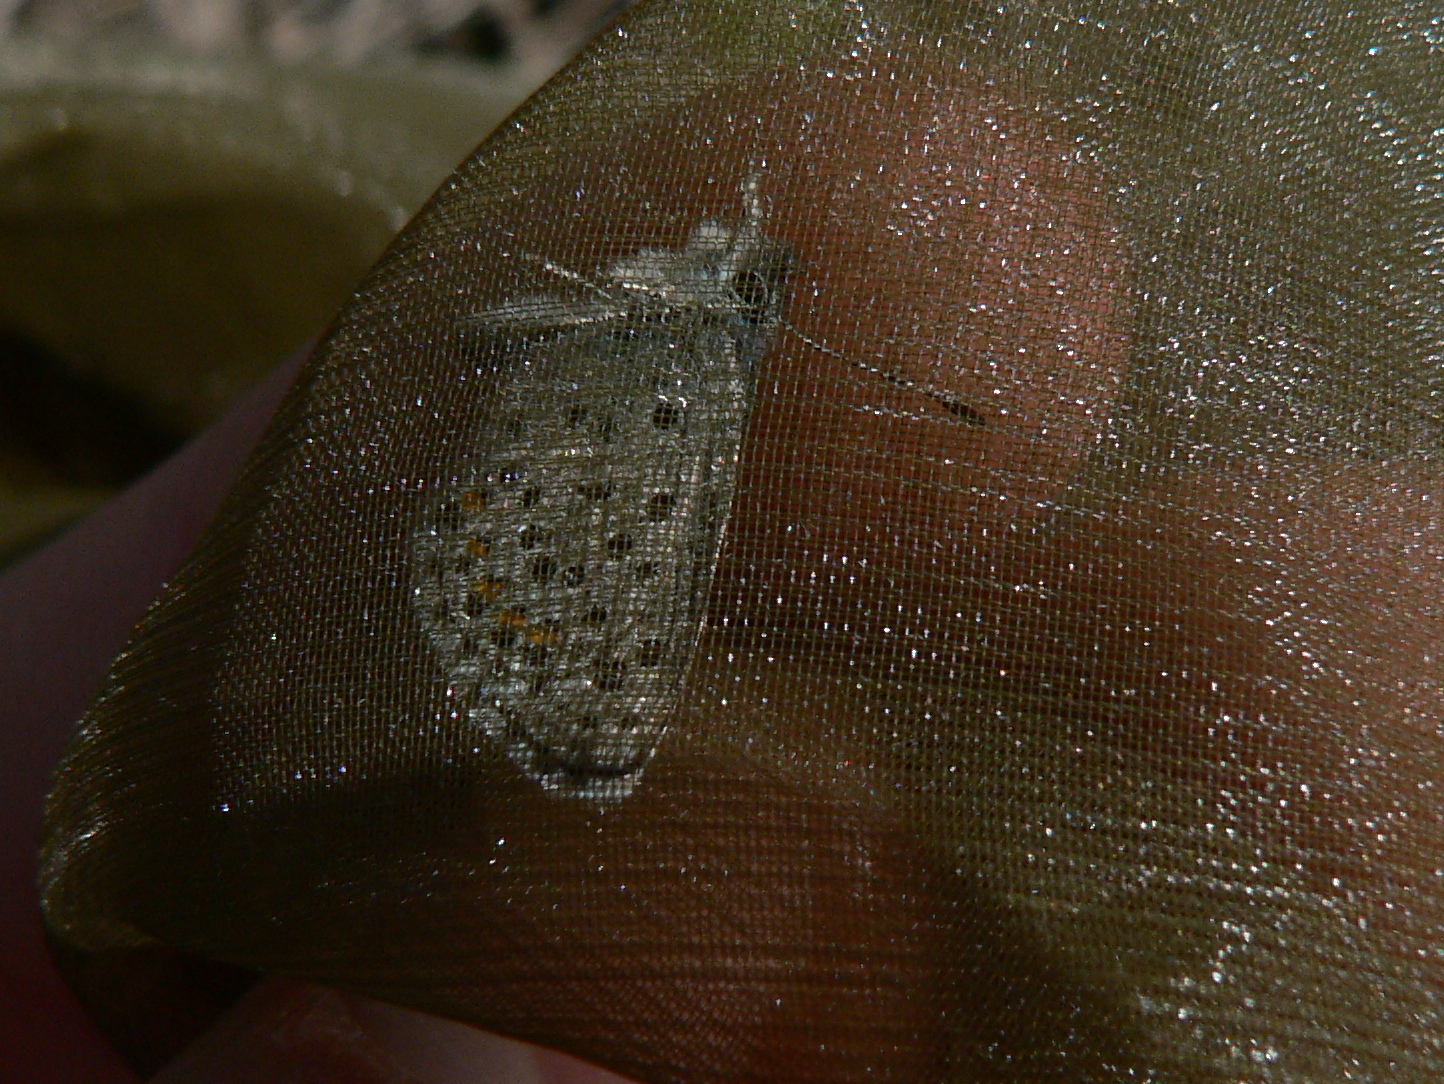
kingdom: Animalia
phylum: Arthropoda
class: Insecta
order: Lepidoptera
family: Lycaenidae
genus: Pseudophilotes
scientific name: Pseudophilotes baton
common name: Baton blue
